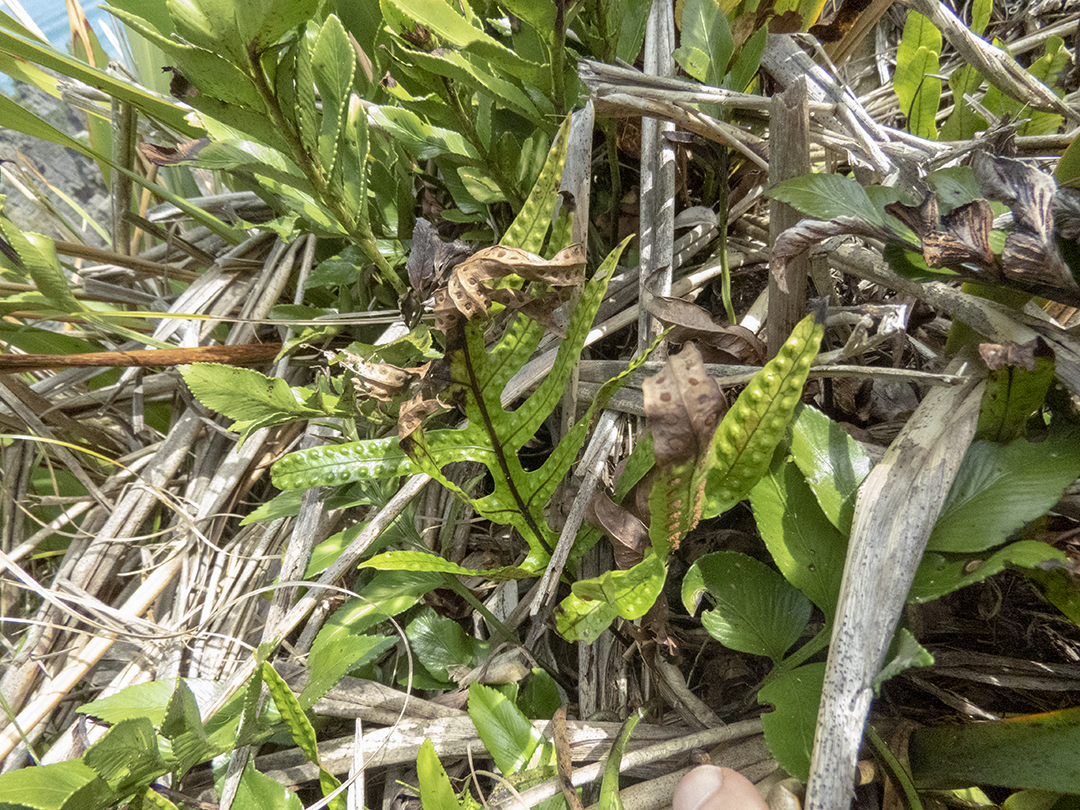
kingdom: Plantae
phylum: Tracheophyta
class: Polypodiopsida
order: Polypodiales
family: Polypodiaceae
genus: Lecanopteris
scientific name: Lecanopteris pustulata
